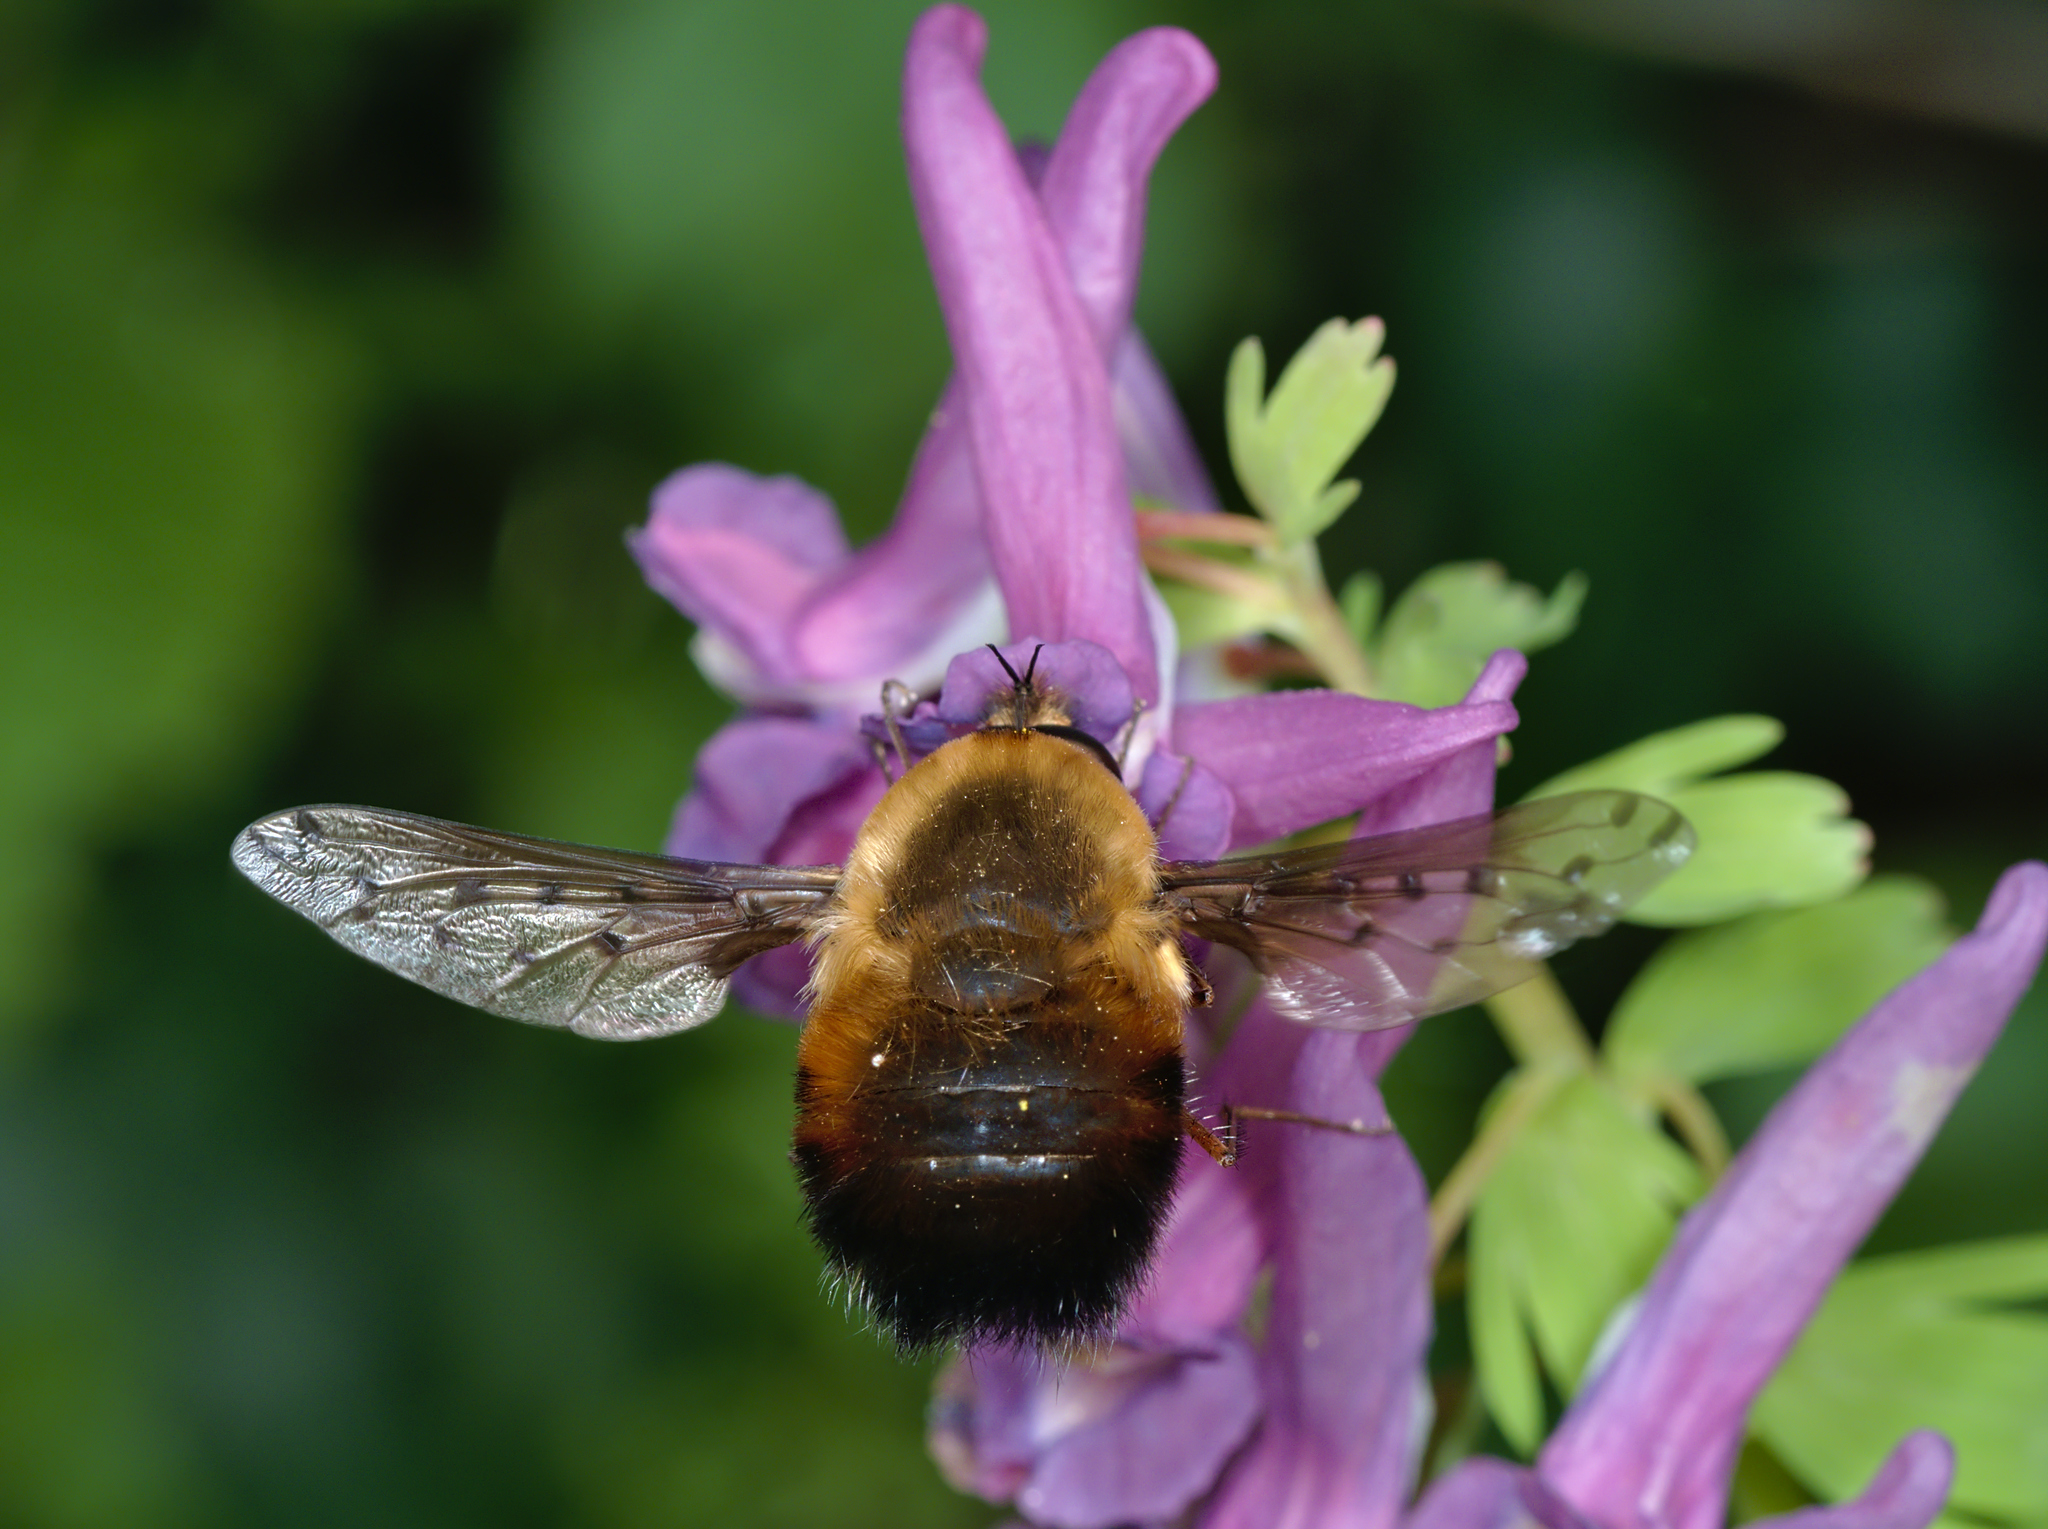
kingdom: Animalia
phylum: Arthropoda
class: Insecta
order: Diptera
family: Bombyliidae
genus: Bombylius
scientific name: Bombylius discolor
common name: Dotted bee-fly
